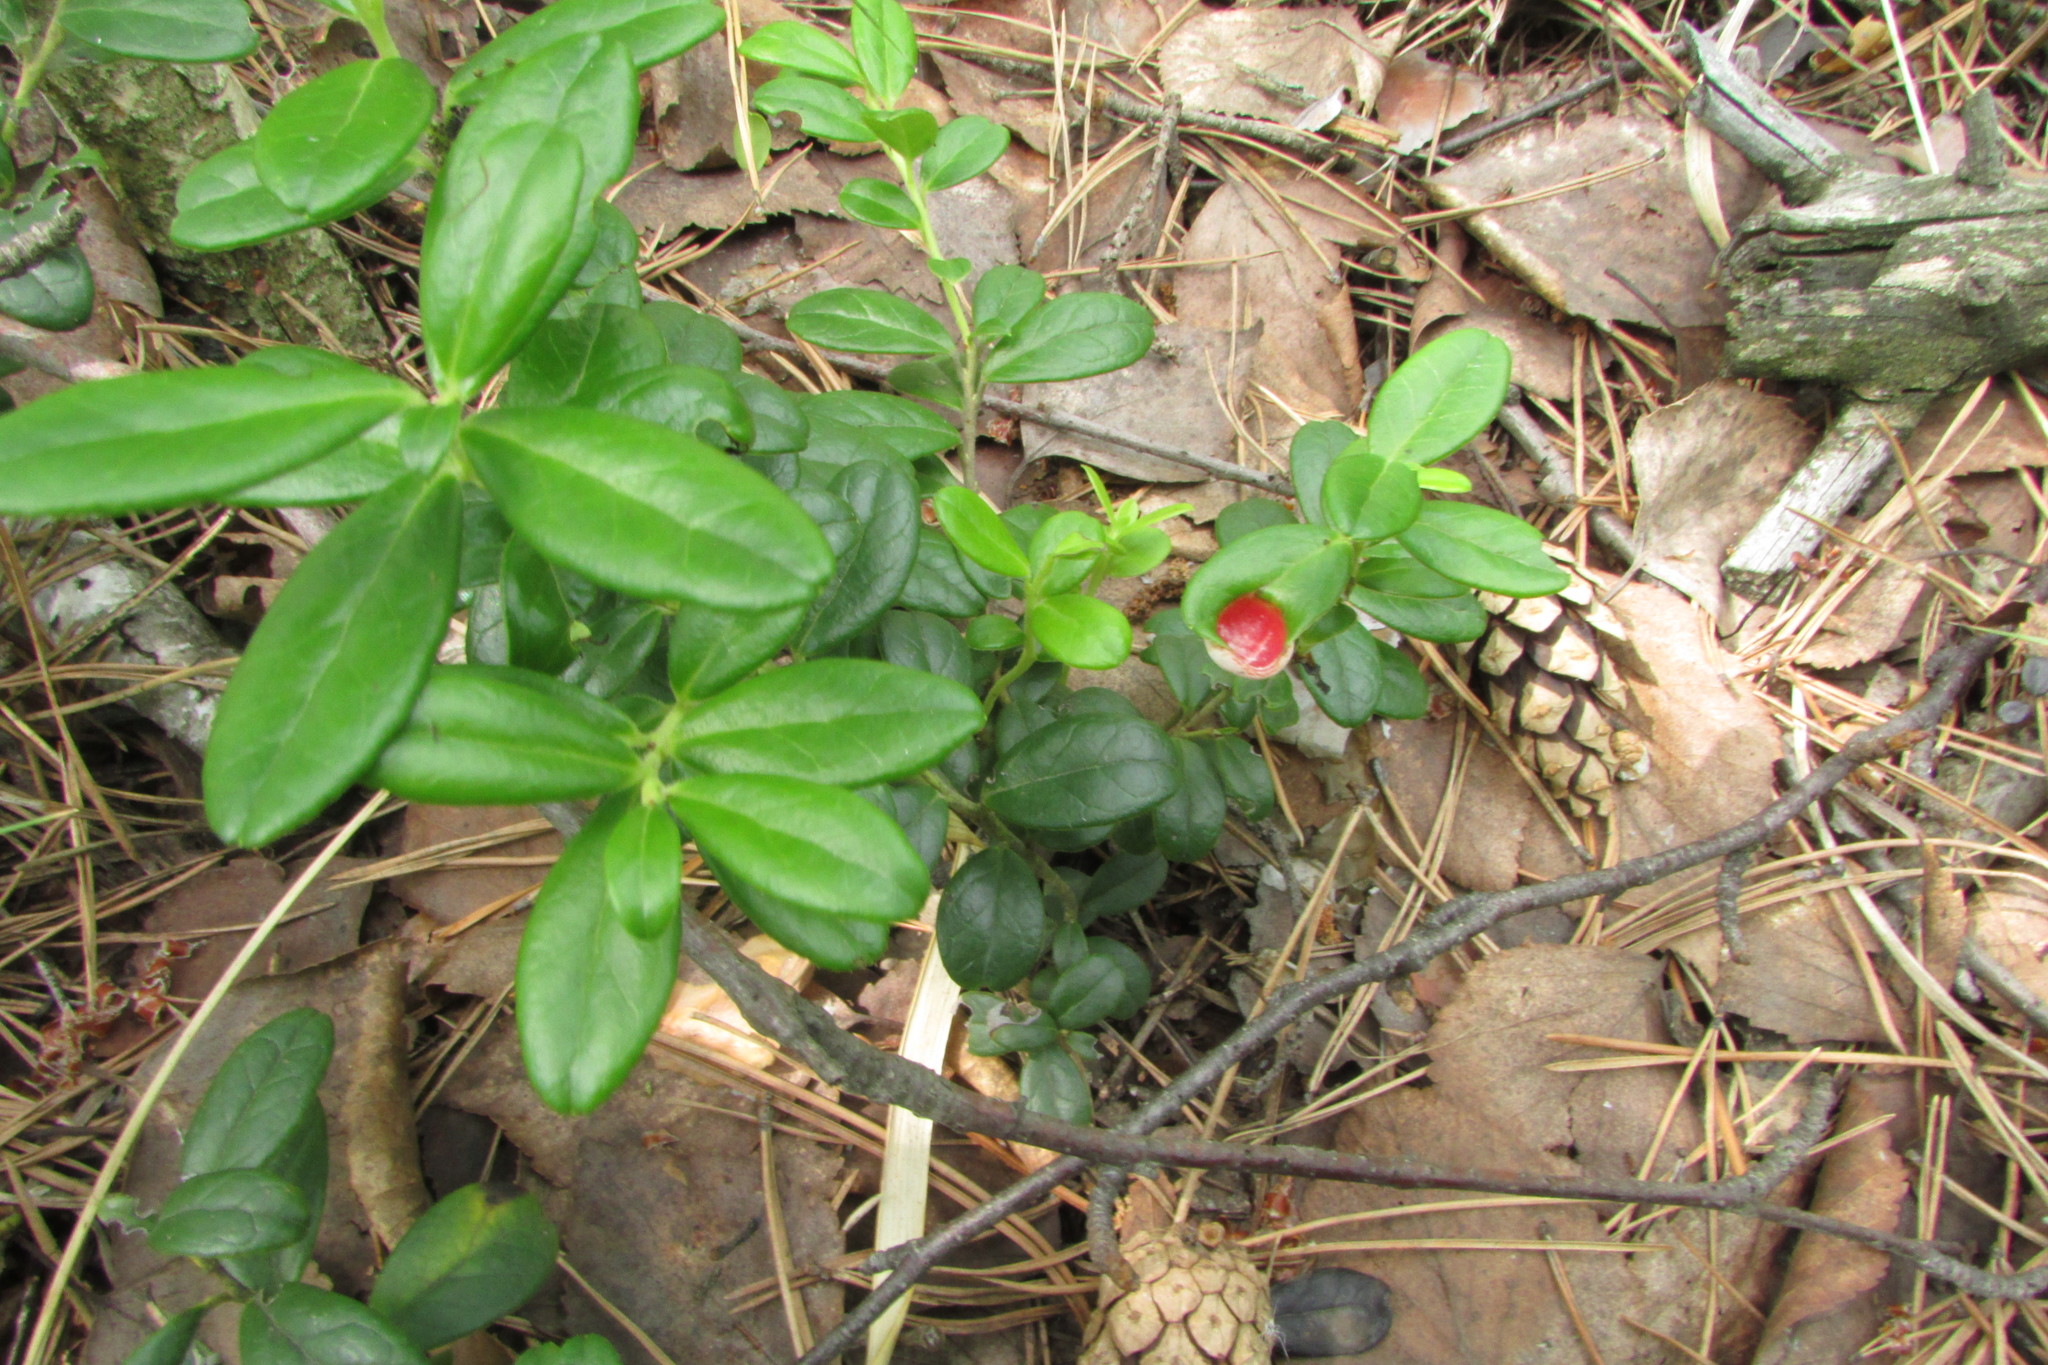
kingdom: Fungi
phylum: Basidiomycota
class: Exobasidiomycetes
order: Exobasidiales
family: Exobasidiaceae
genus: Exobasidium
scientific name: Exobasidium vaccinii
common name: Cowberry redleaf
